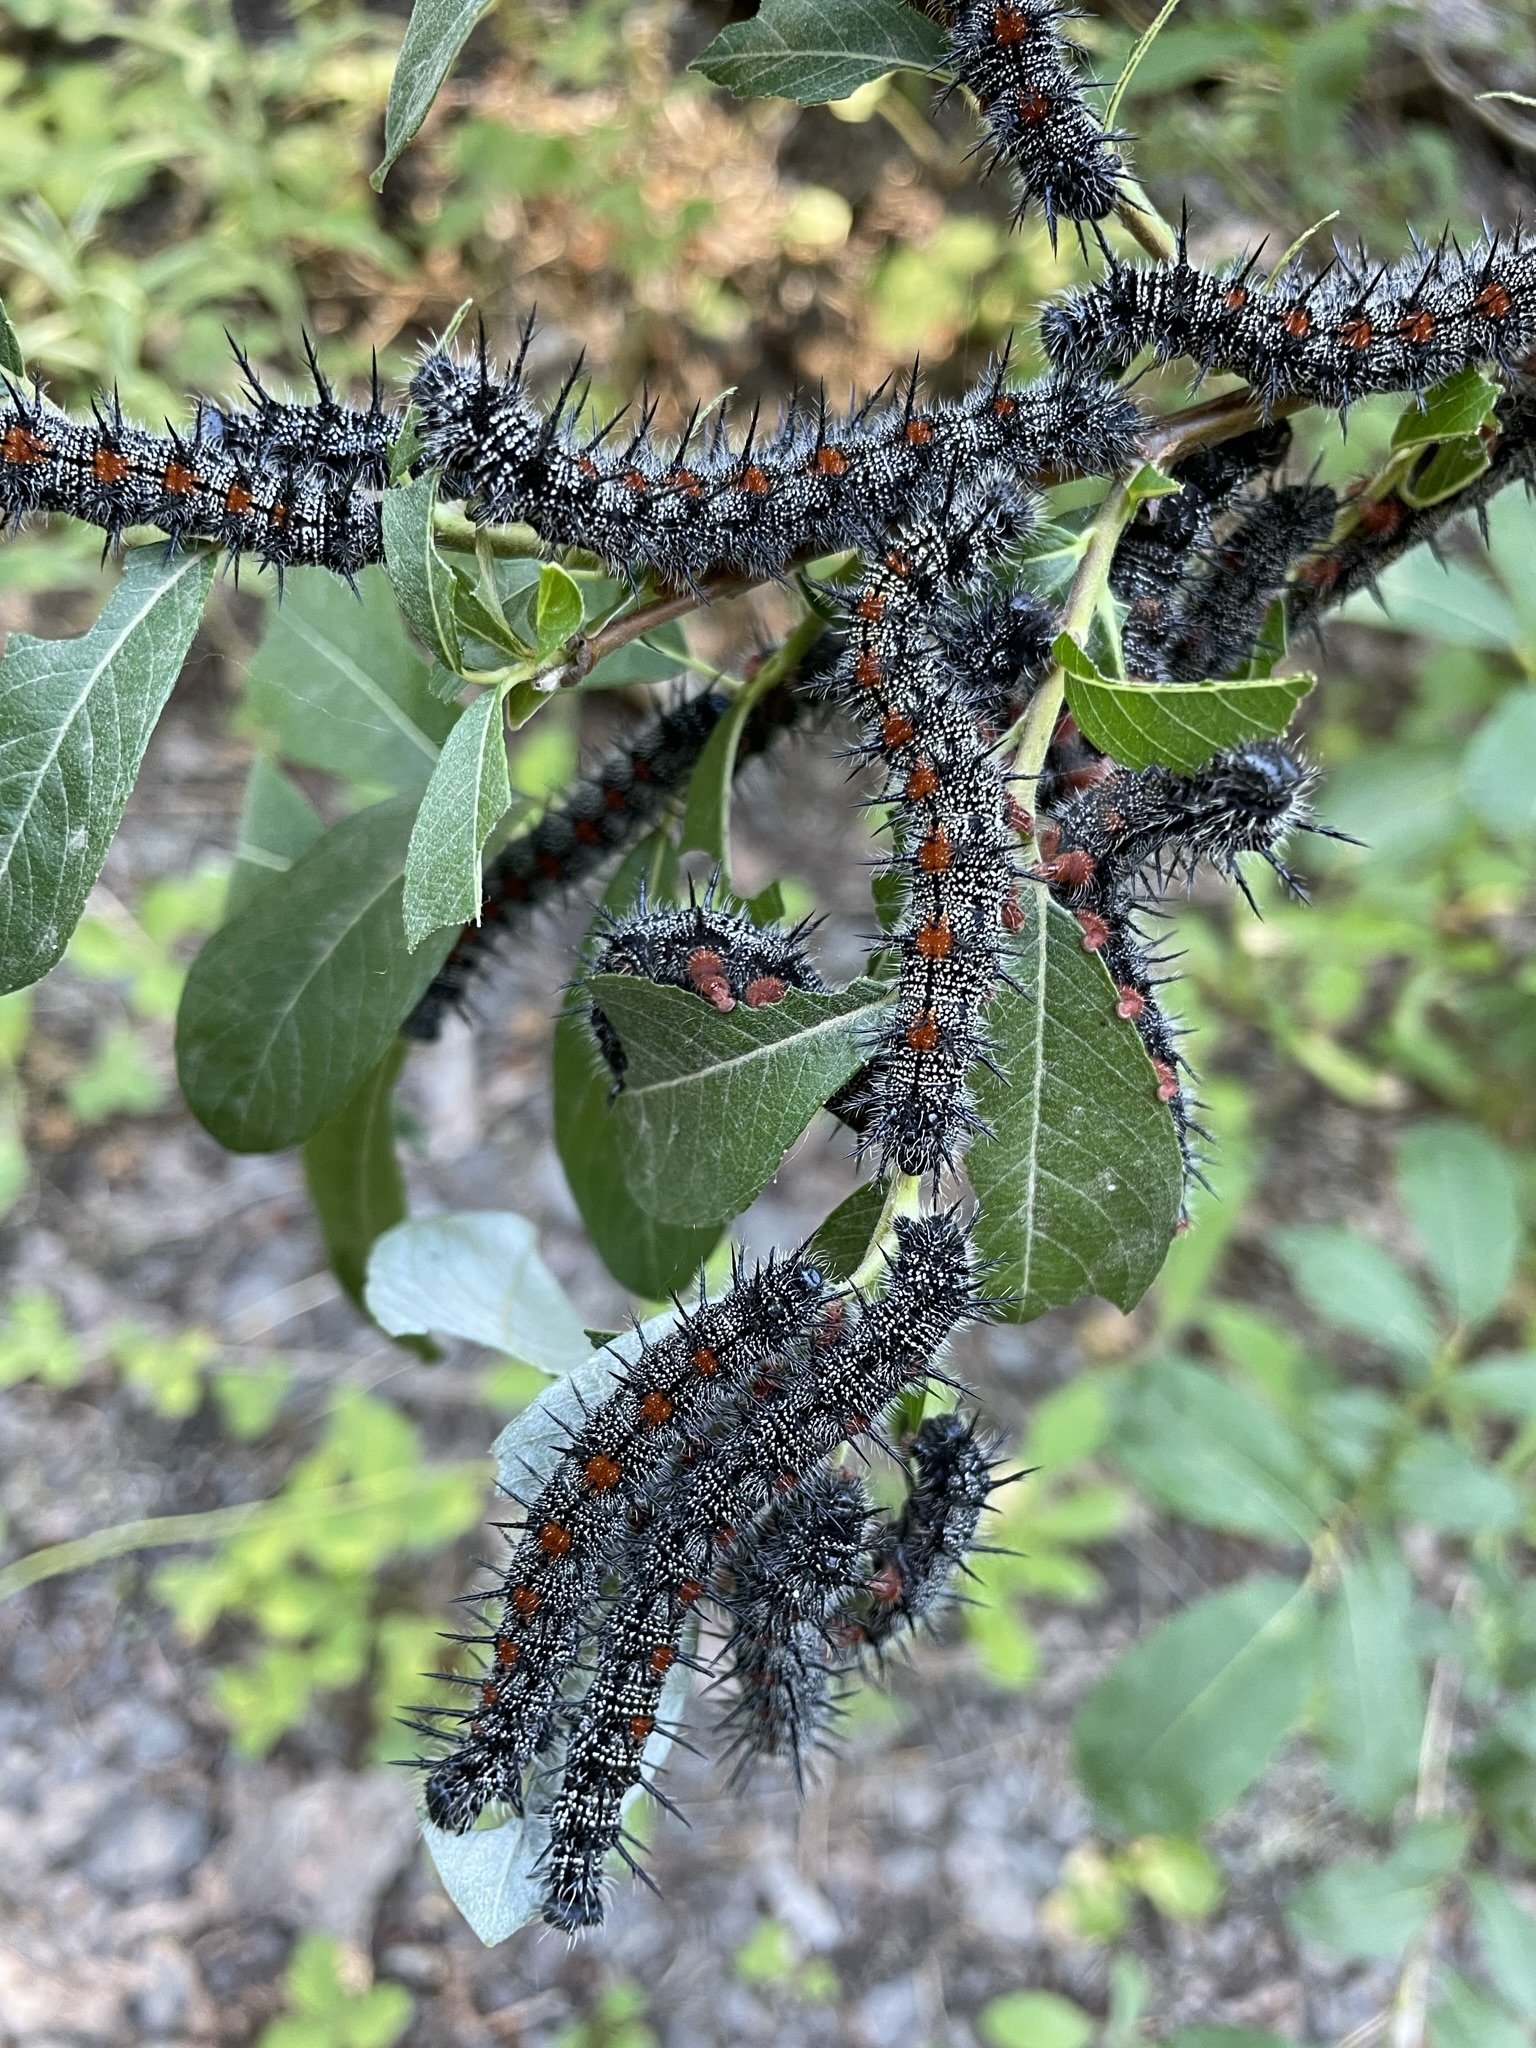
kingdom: Animalia
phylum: Arthropoda
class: Insecta
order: Lepidoptera
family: Nymphalidae
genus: Nymphalis
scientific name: Nymphalis antiopa
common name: Camberwell beauty
